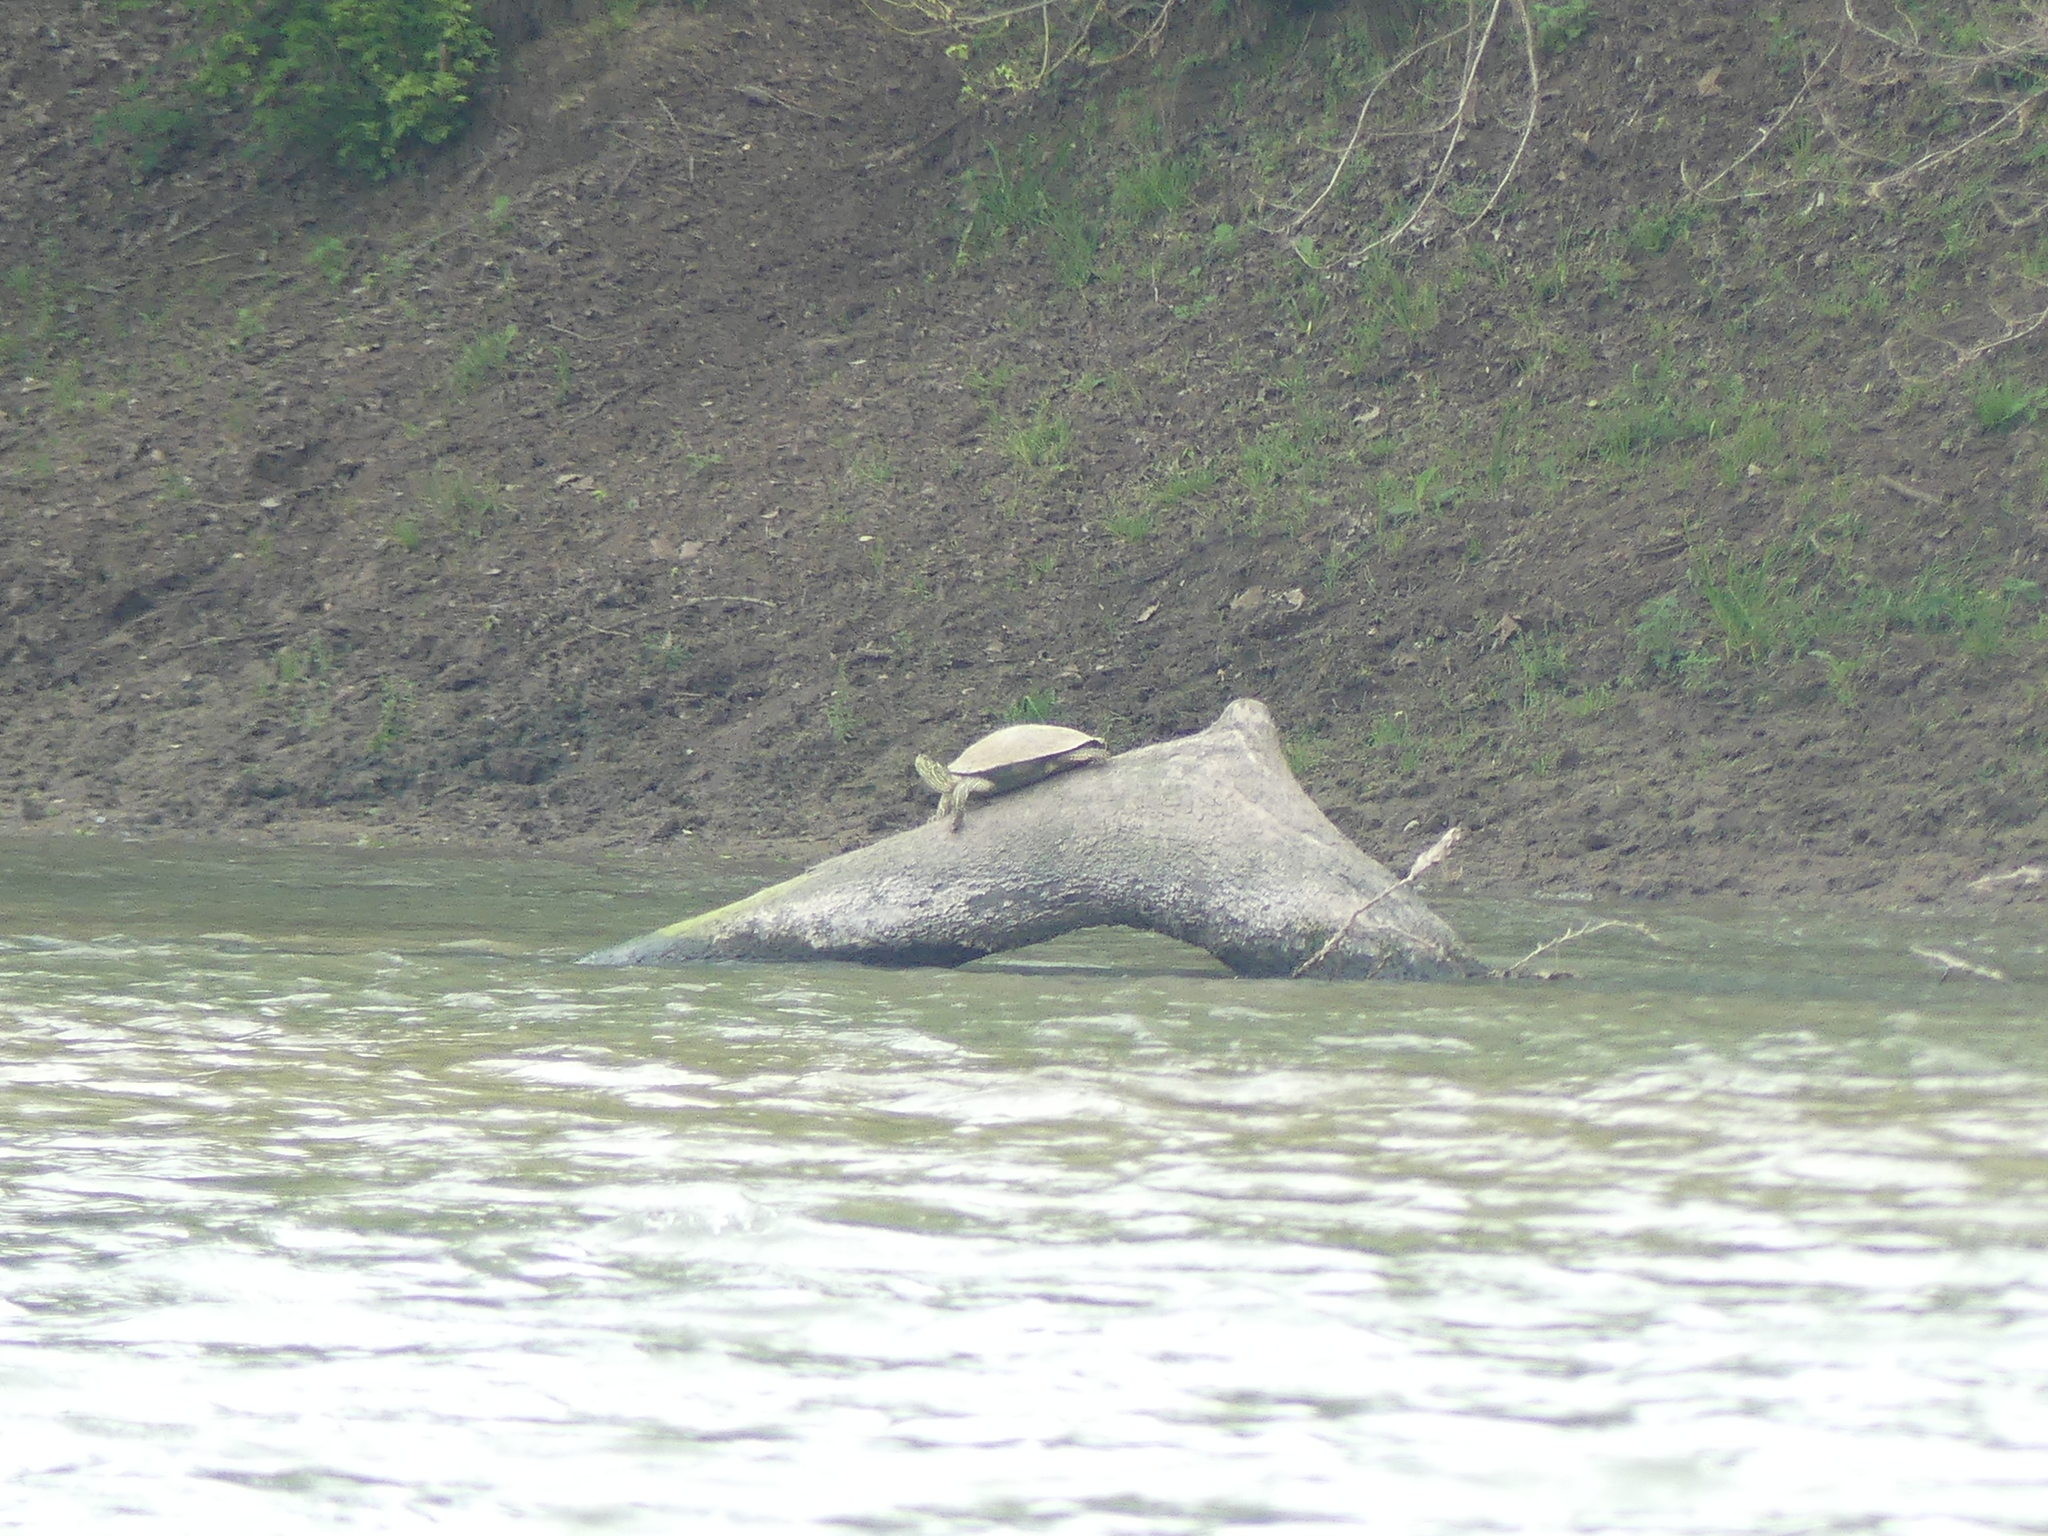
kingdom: Animalia
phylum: Chordata
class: Testudines
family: Emydidae
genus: Pseudemys
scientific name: Pseudemys texana
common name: Texas river cooter
